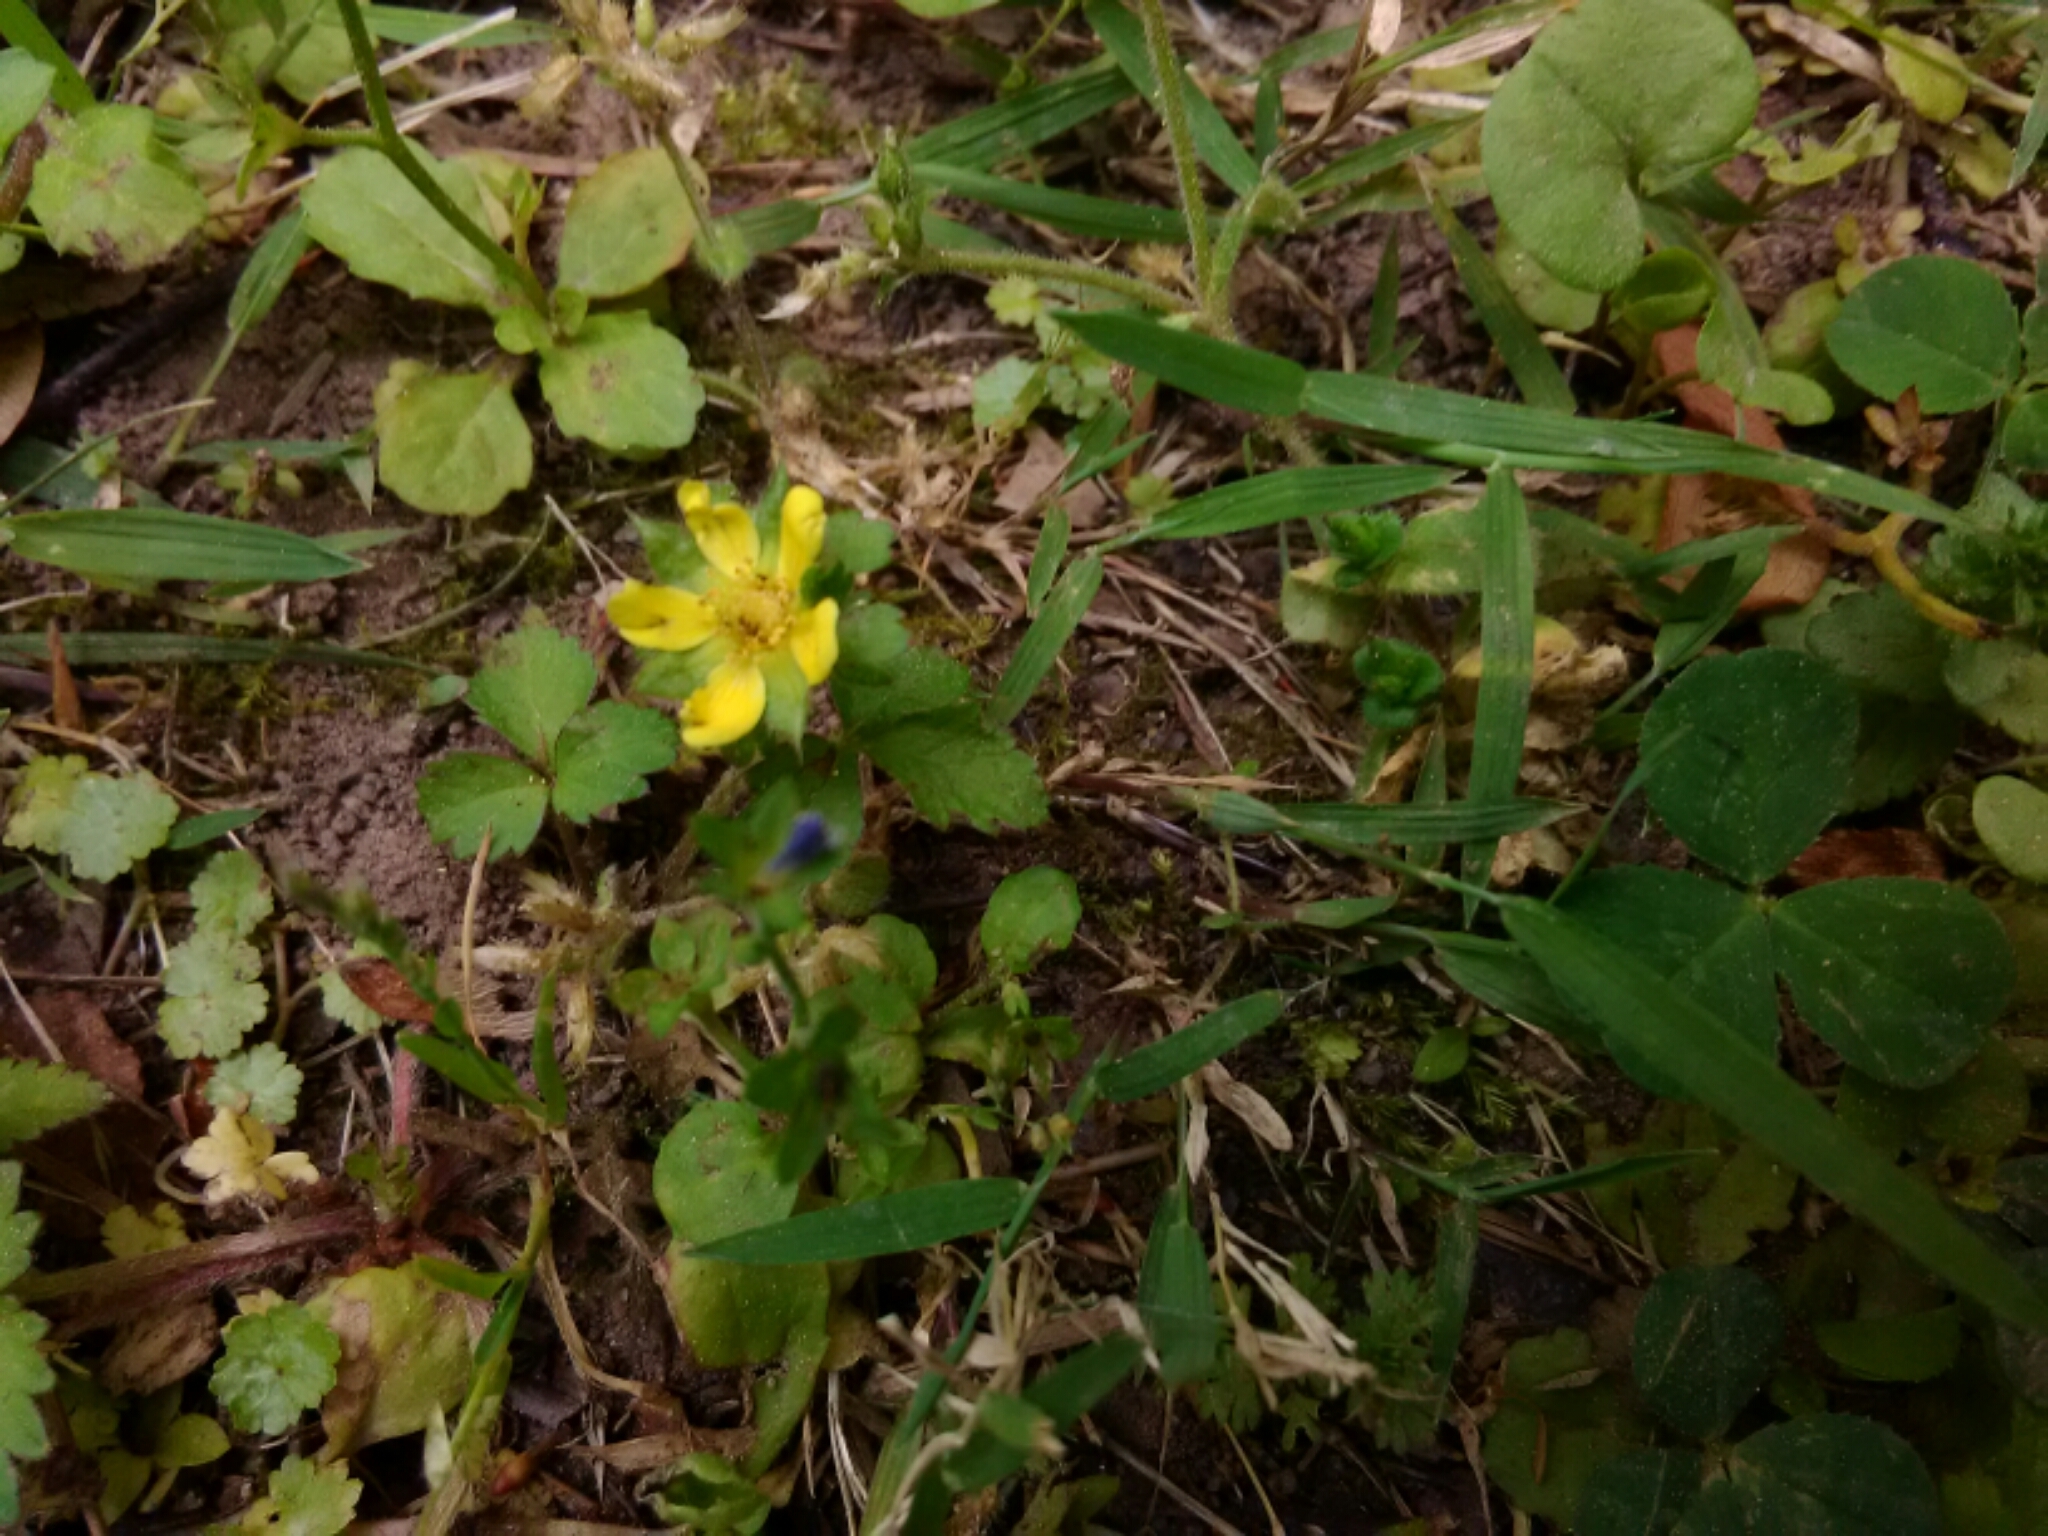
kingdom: Plantae
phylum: Tracheophyta
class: Magnoliopsida
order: Rosales
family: Rosaceae
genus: Potentilla
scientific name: Potentilla indica
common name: Yellow-flowered strawberry
